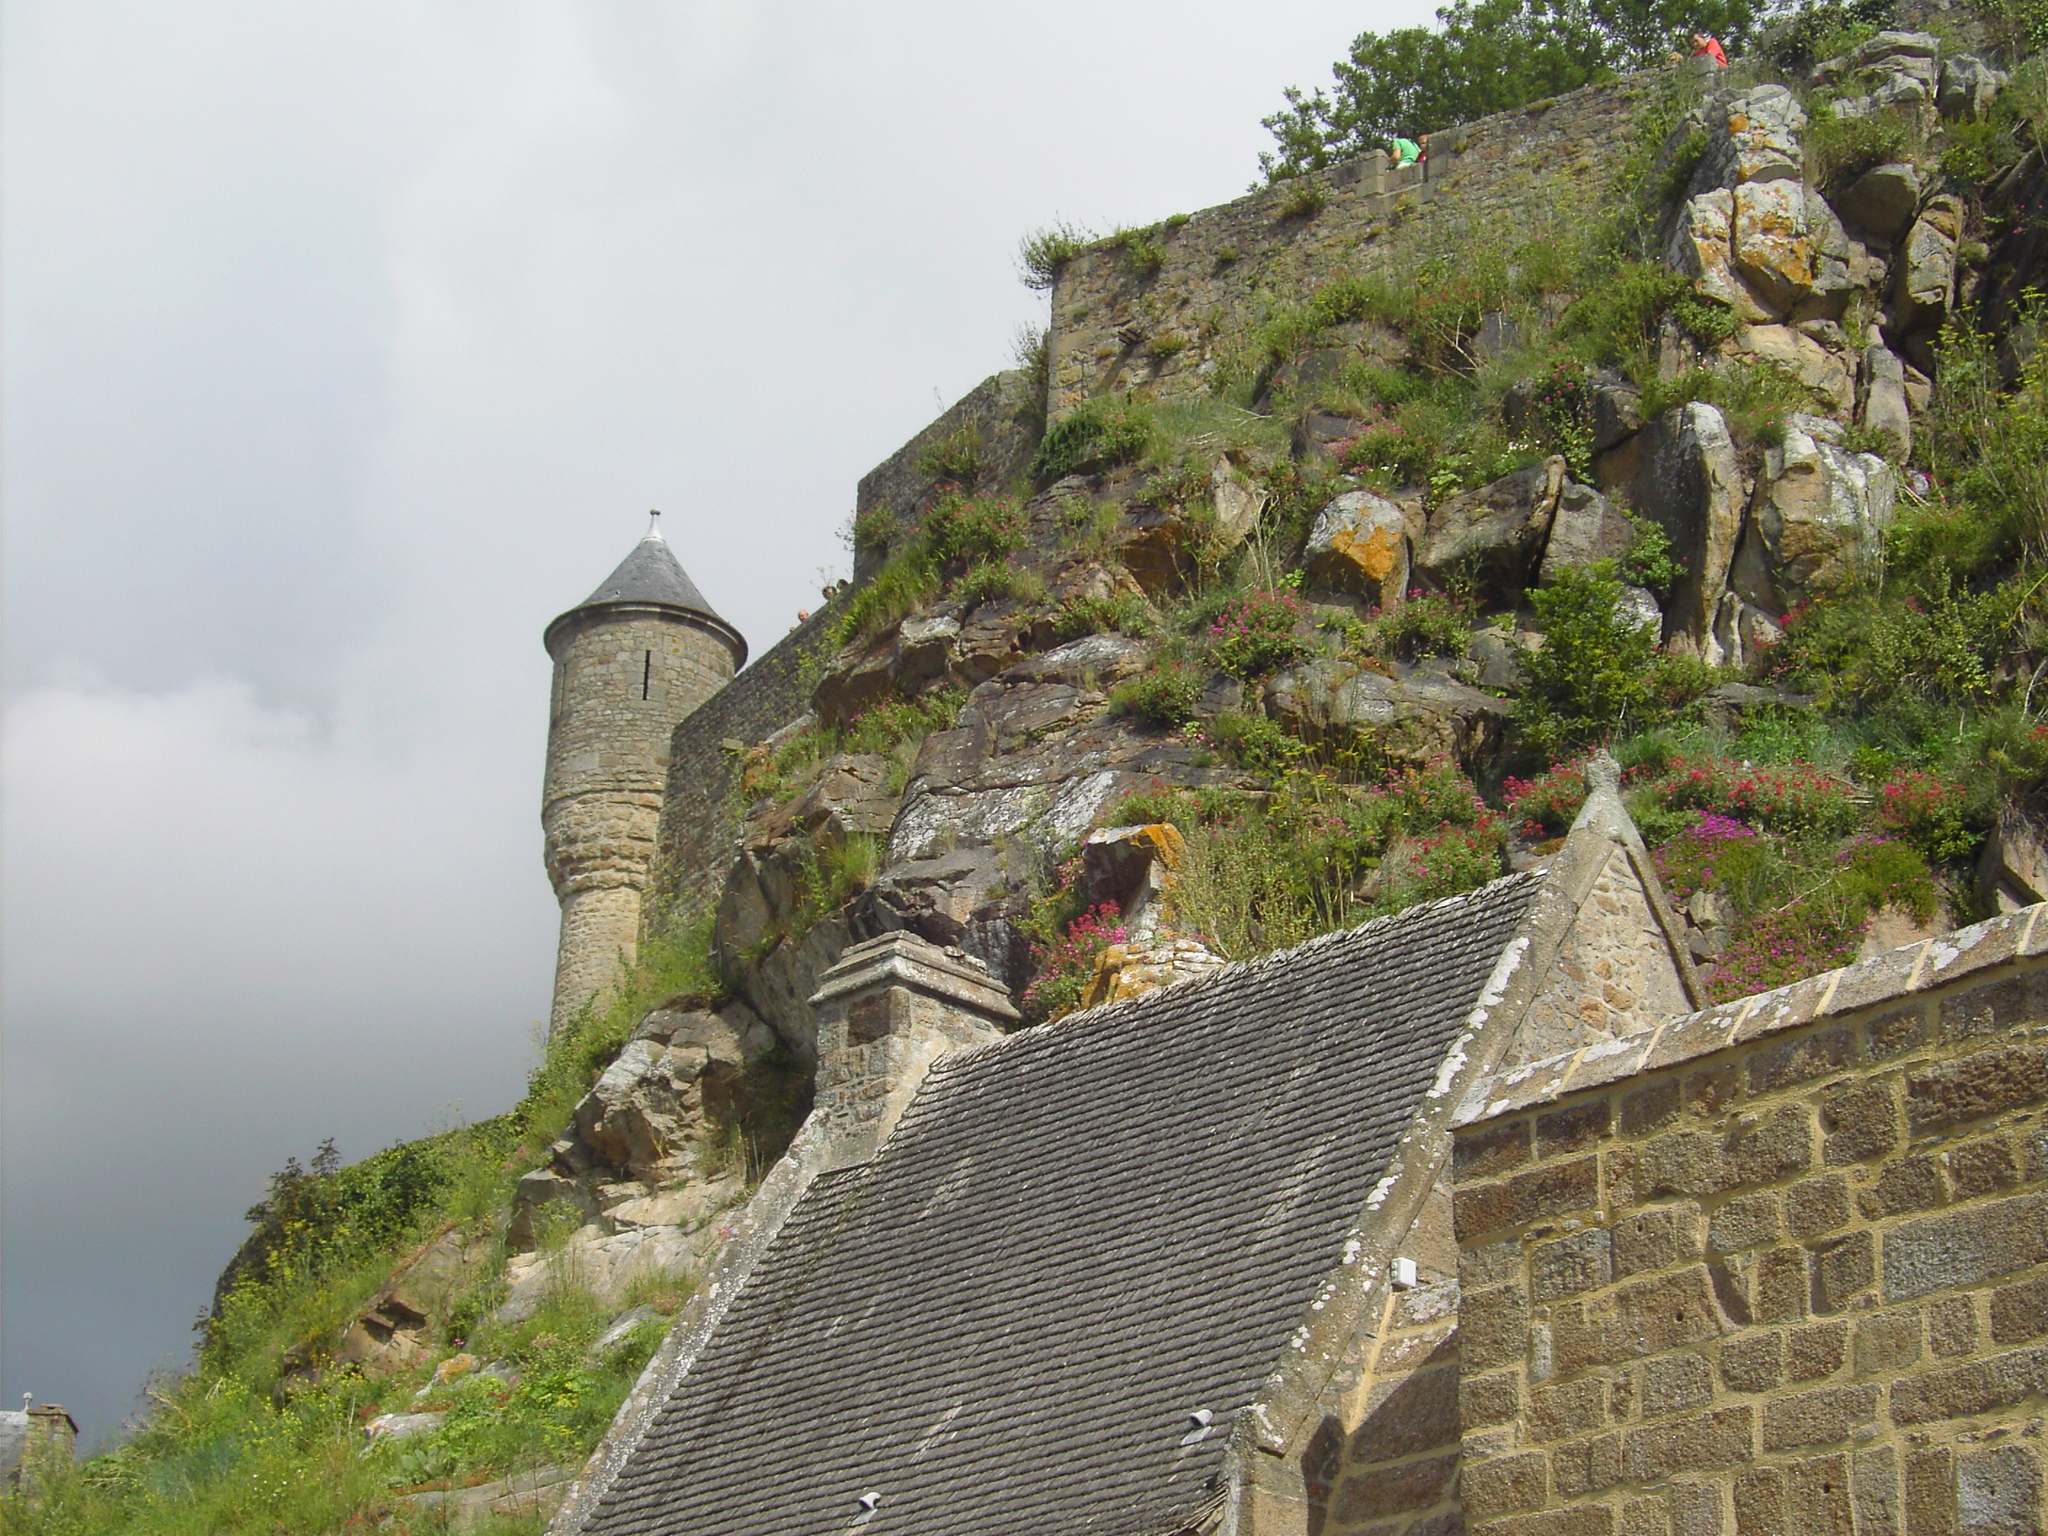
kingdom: Plantae
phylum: Tracheophyta
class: Magnoliopsida
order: Dipsacales
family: Caprifoliaceae
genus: Centranthus
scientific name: Centranthus ruber
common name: Red valerian
